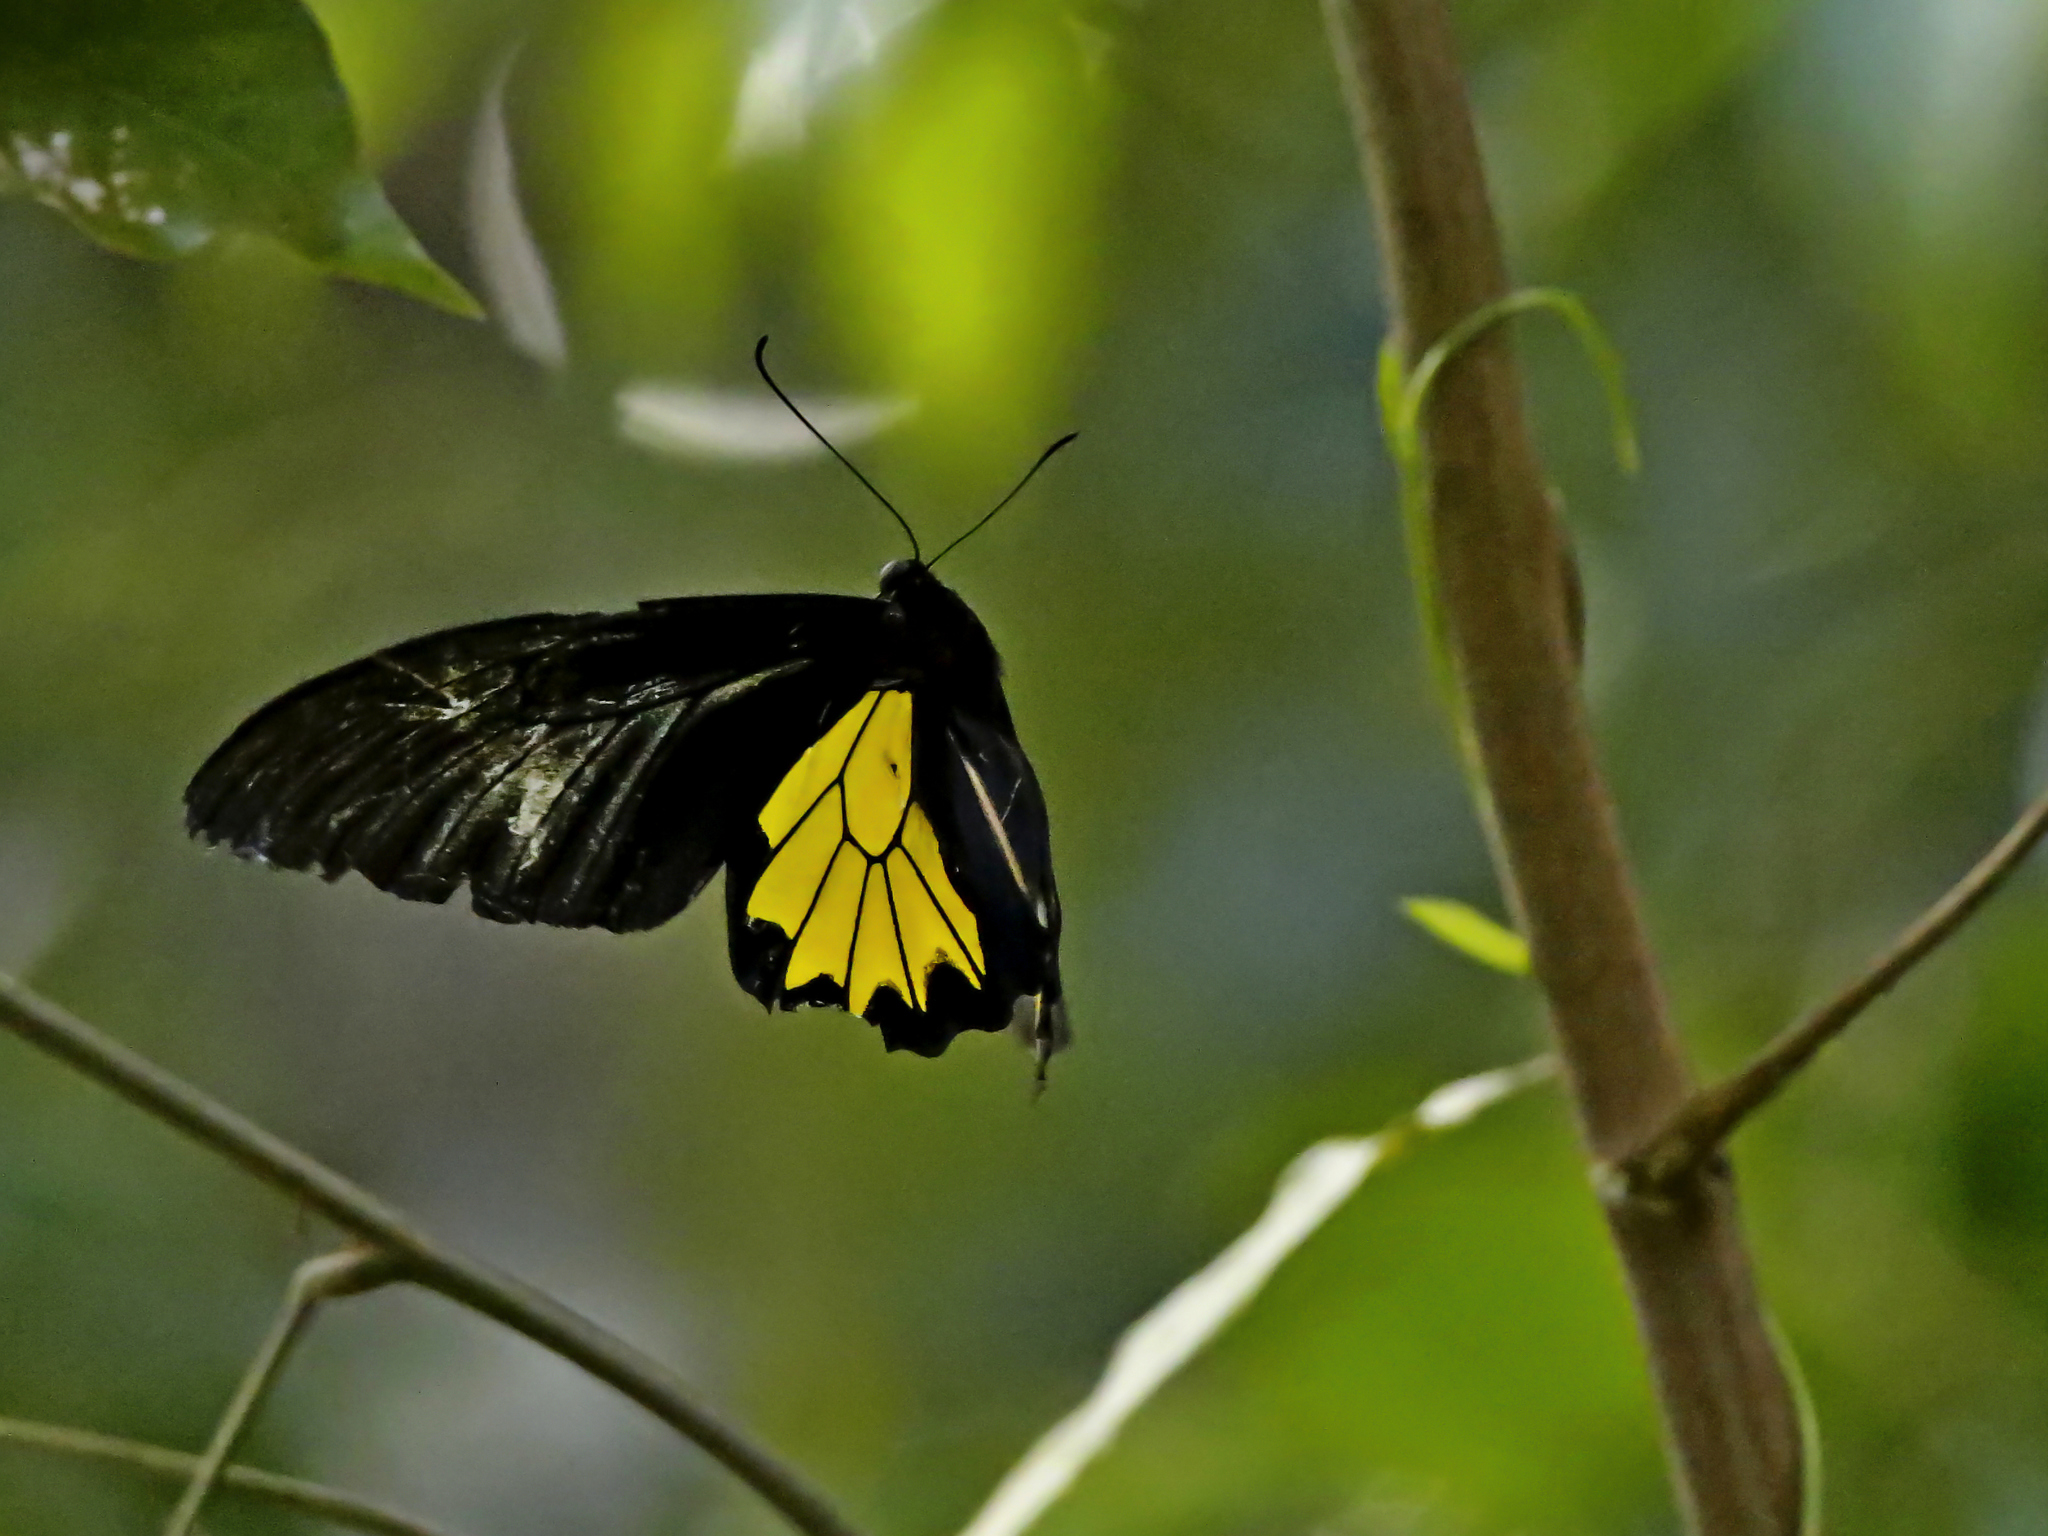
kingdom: Animalia
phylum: Arthropoda
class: Insecta
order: Lepidoptera
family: Papilionidae
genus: Troides
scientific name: Troides minos
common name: Malabar birdwing
